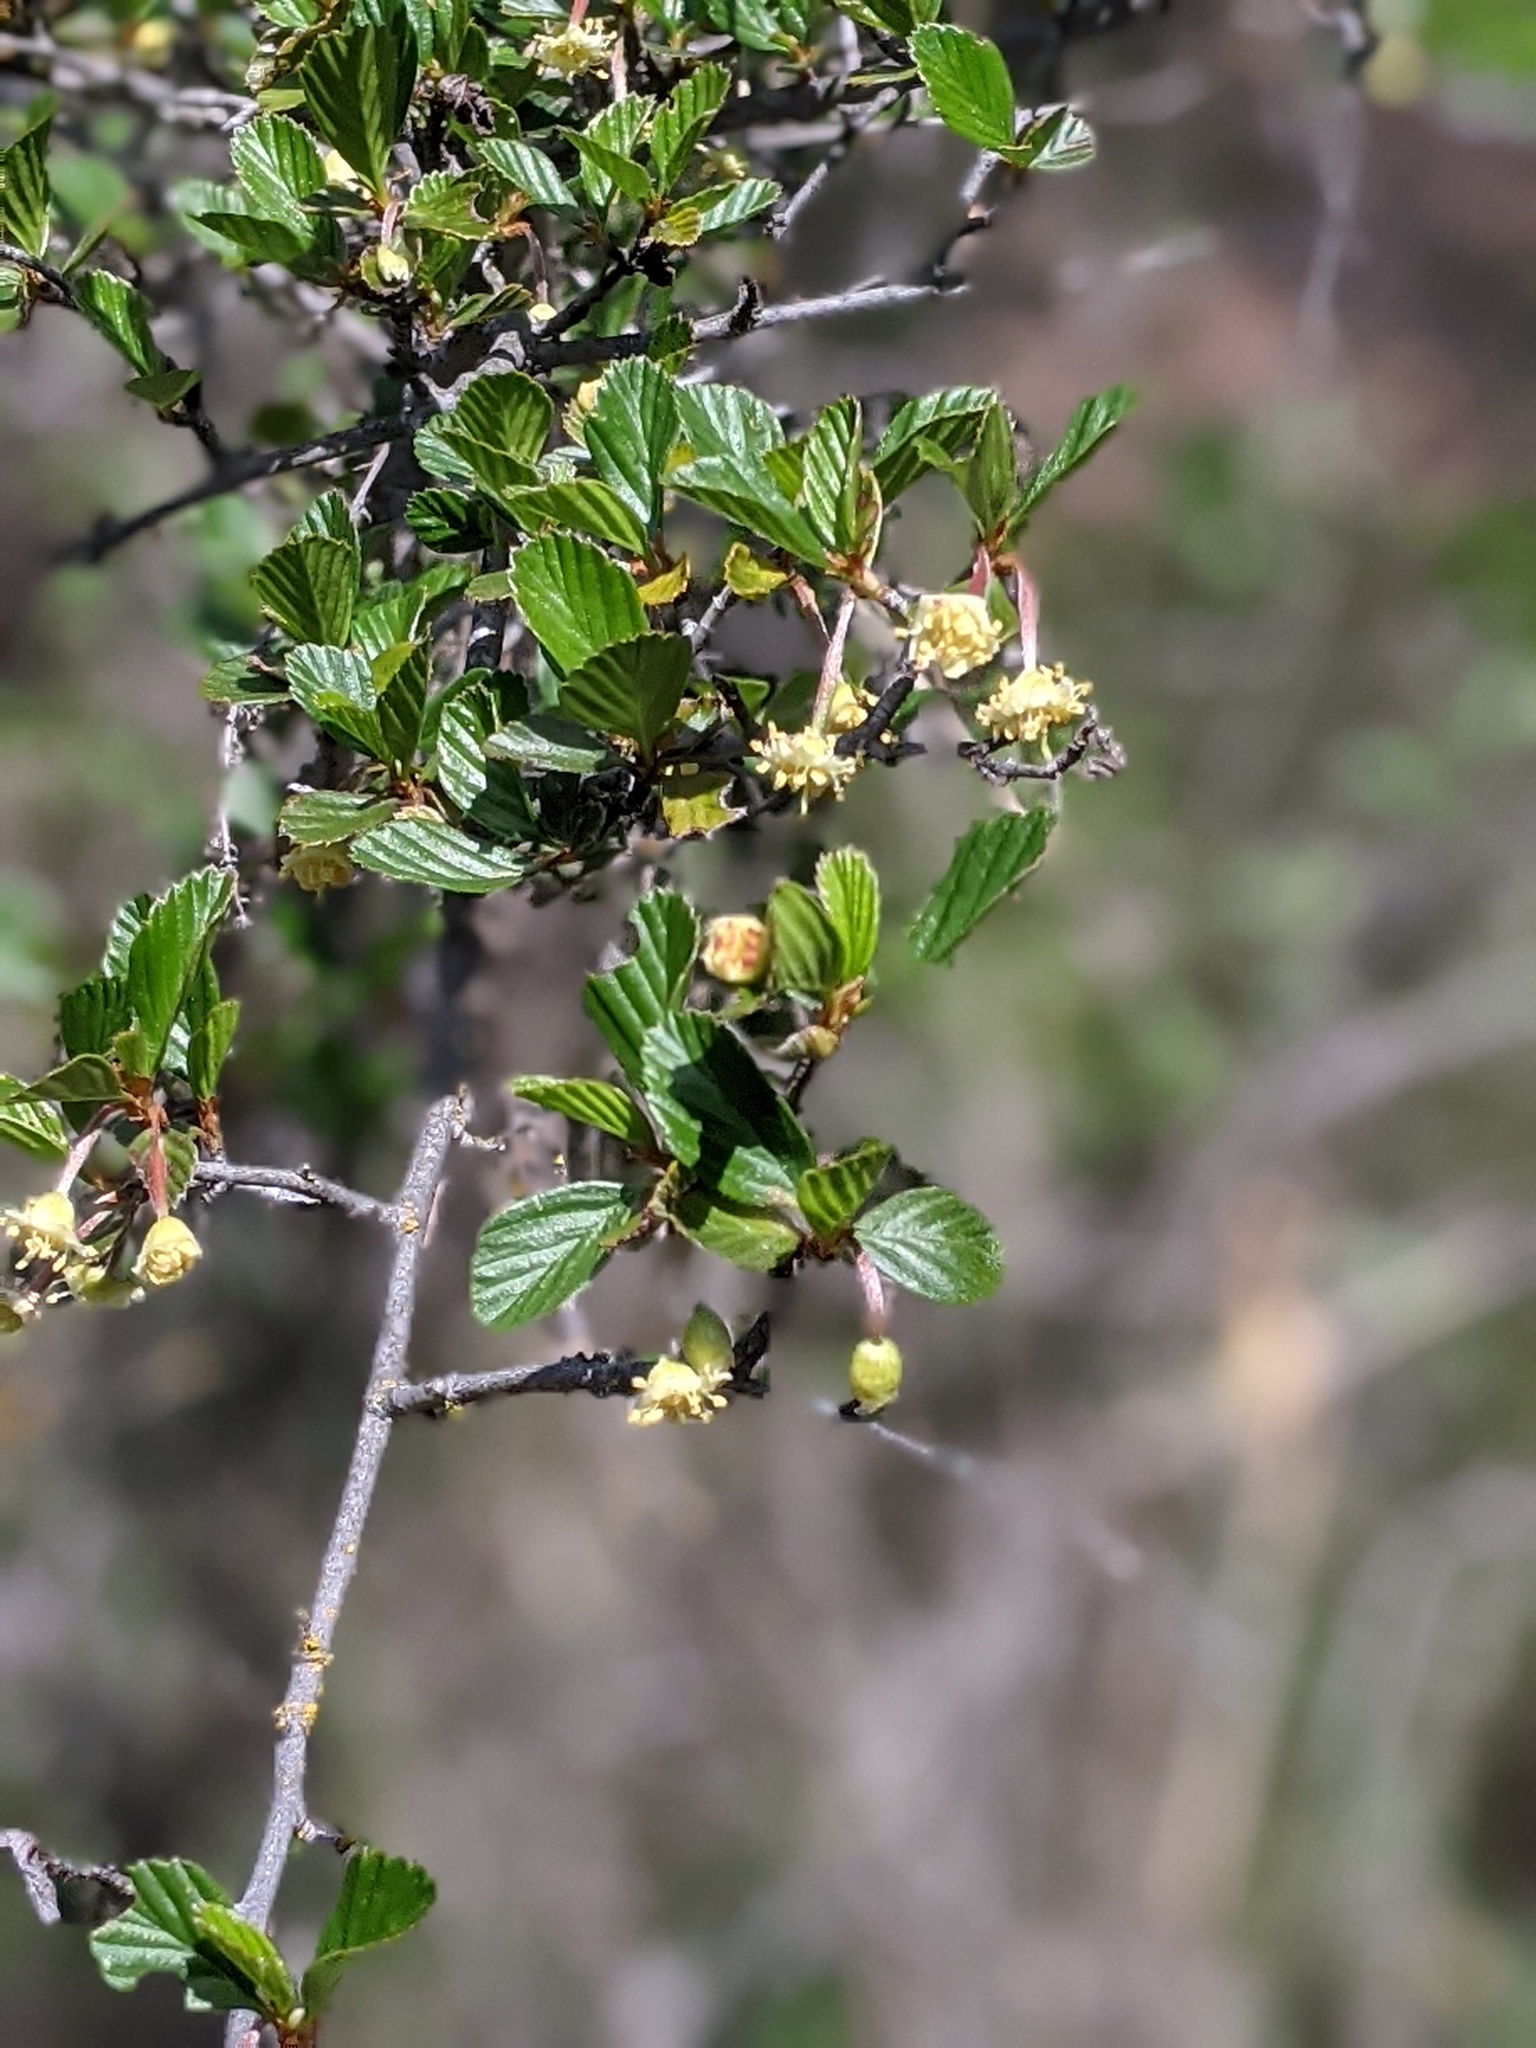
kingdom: Plantae
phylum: Tracheophyta
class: Magnoliopsida
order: Rosales
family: Rosaceae
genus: Cercocarpus
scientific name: Cercocarpus betuloides
